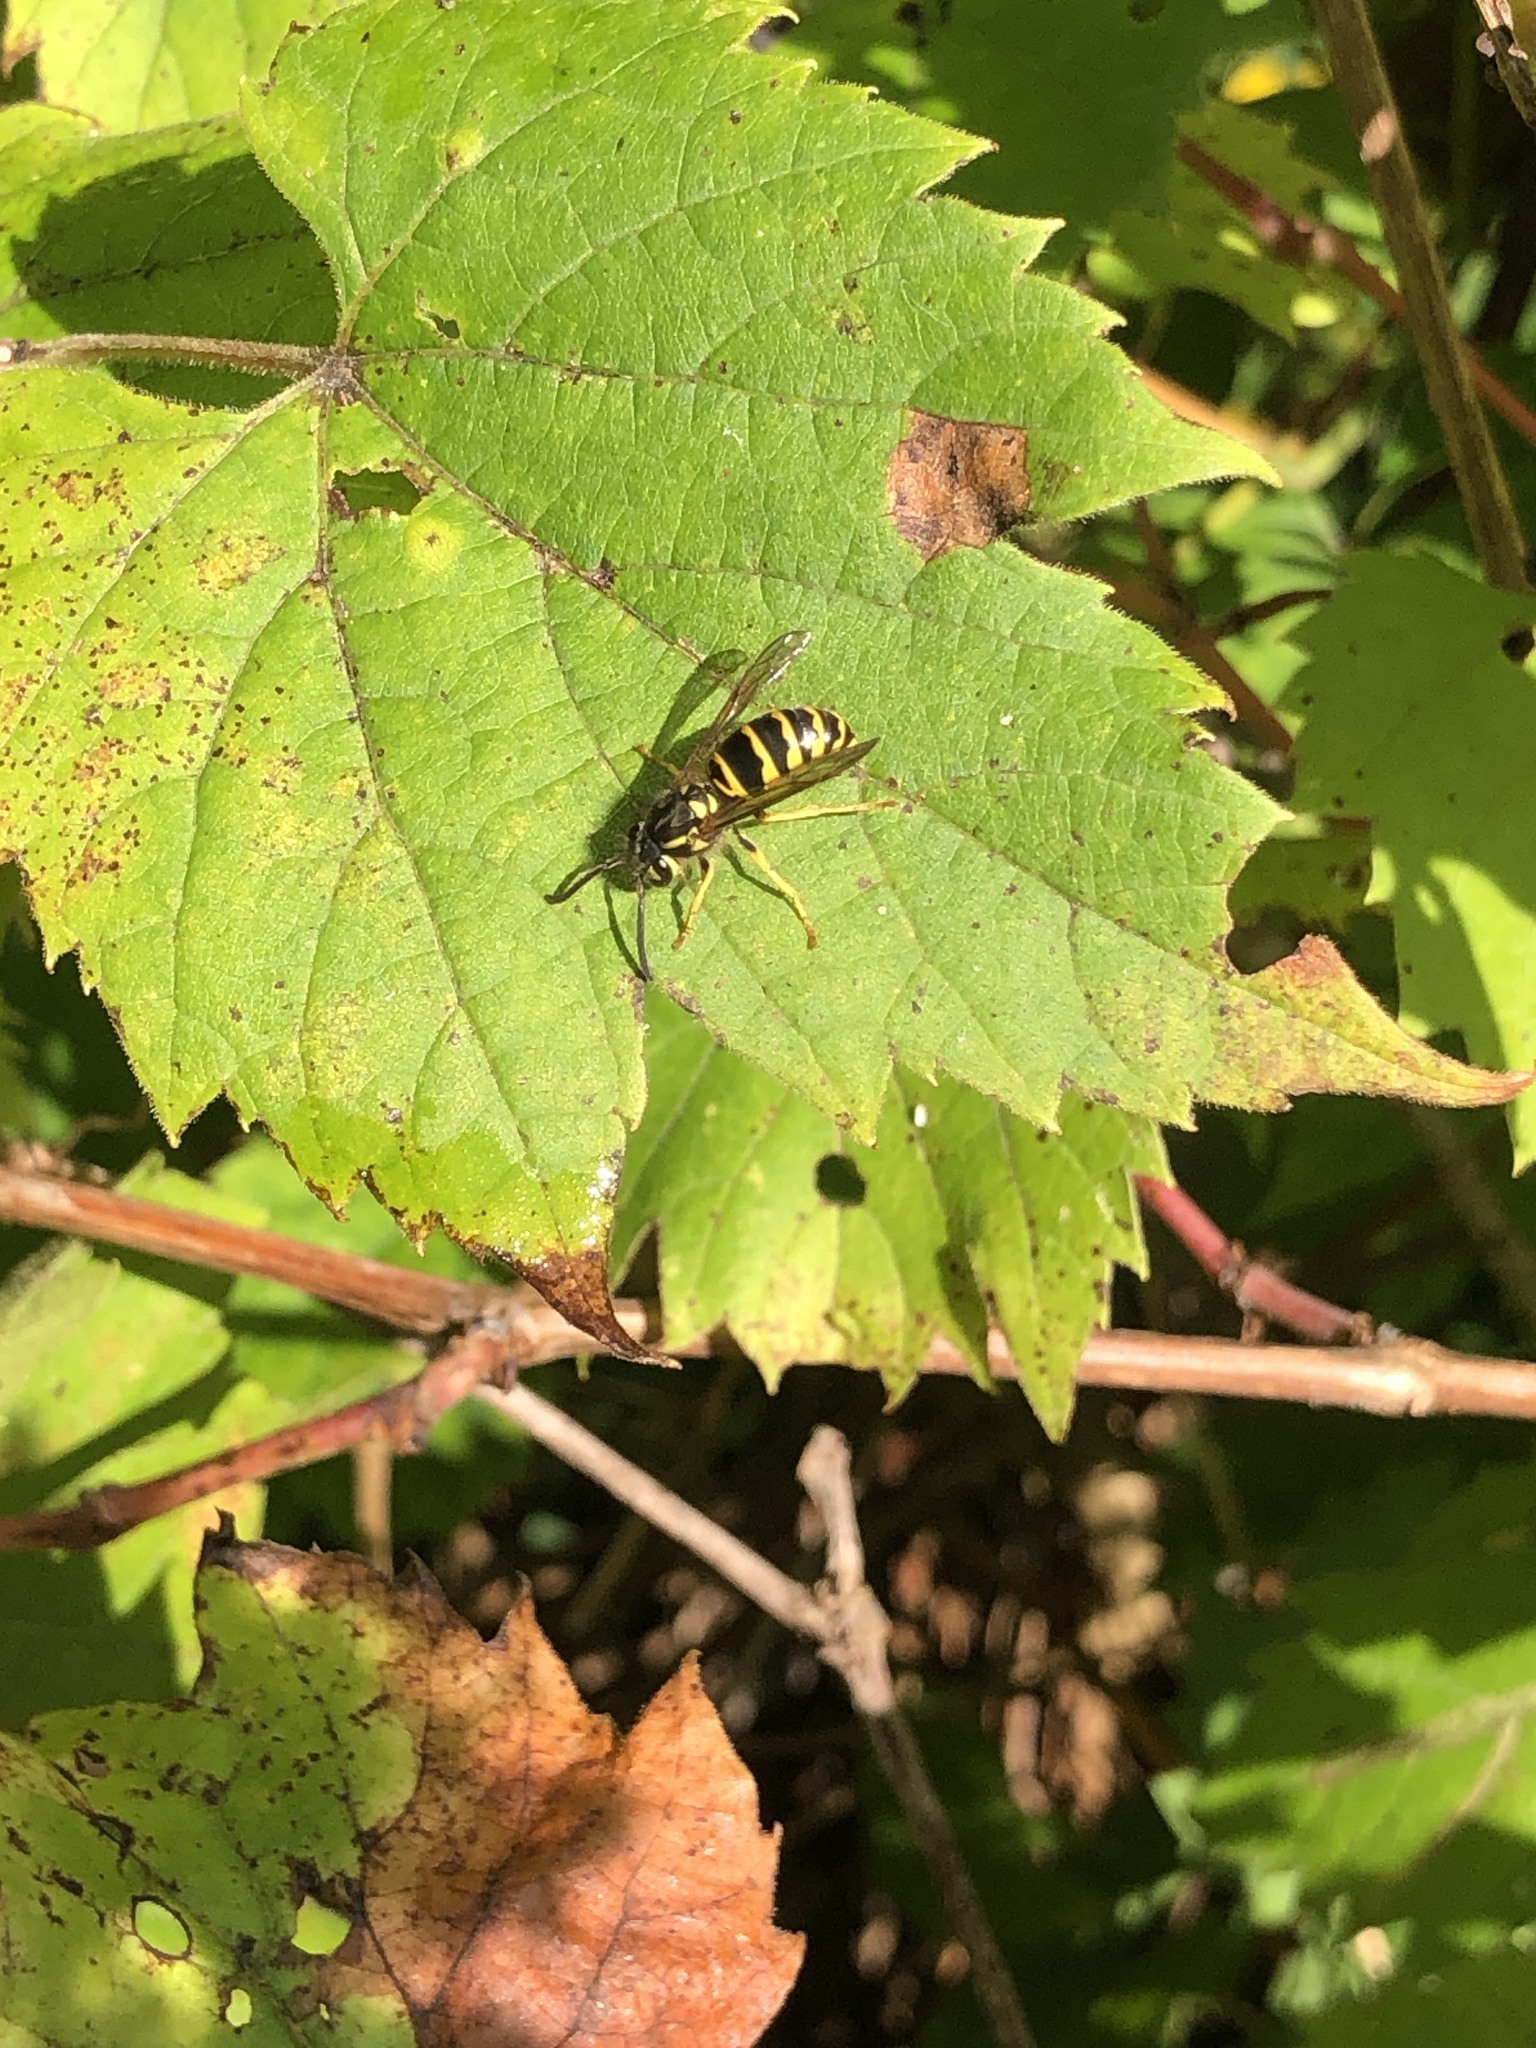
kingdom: Animalia
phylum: Arthropoda
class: Insecta
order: Hymenoptera
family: Vespidae
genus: Vespula
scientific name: Vespula maculifrons
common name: Eastern yellowjacket
